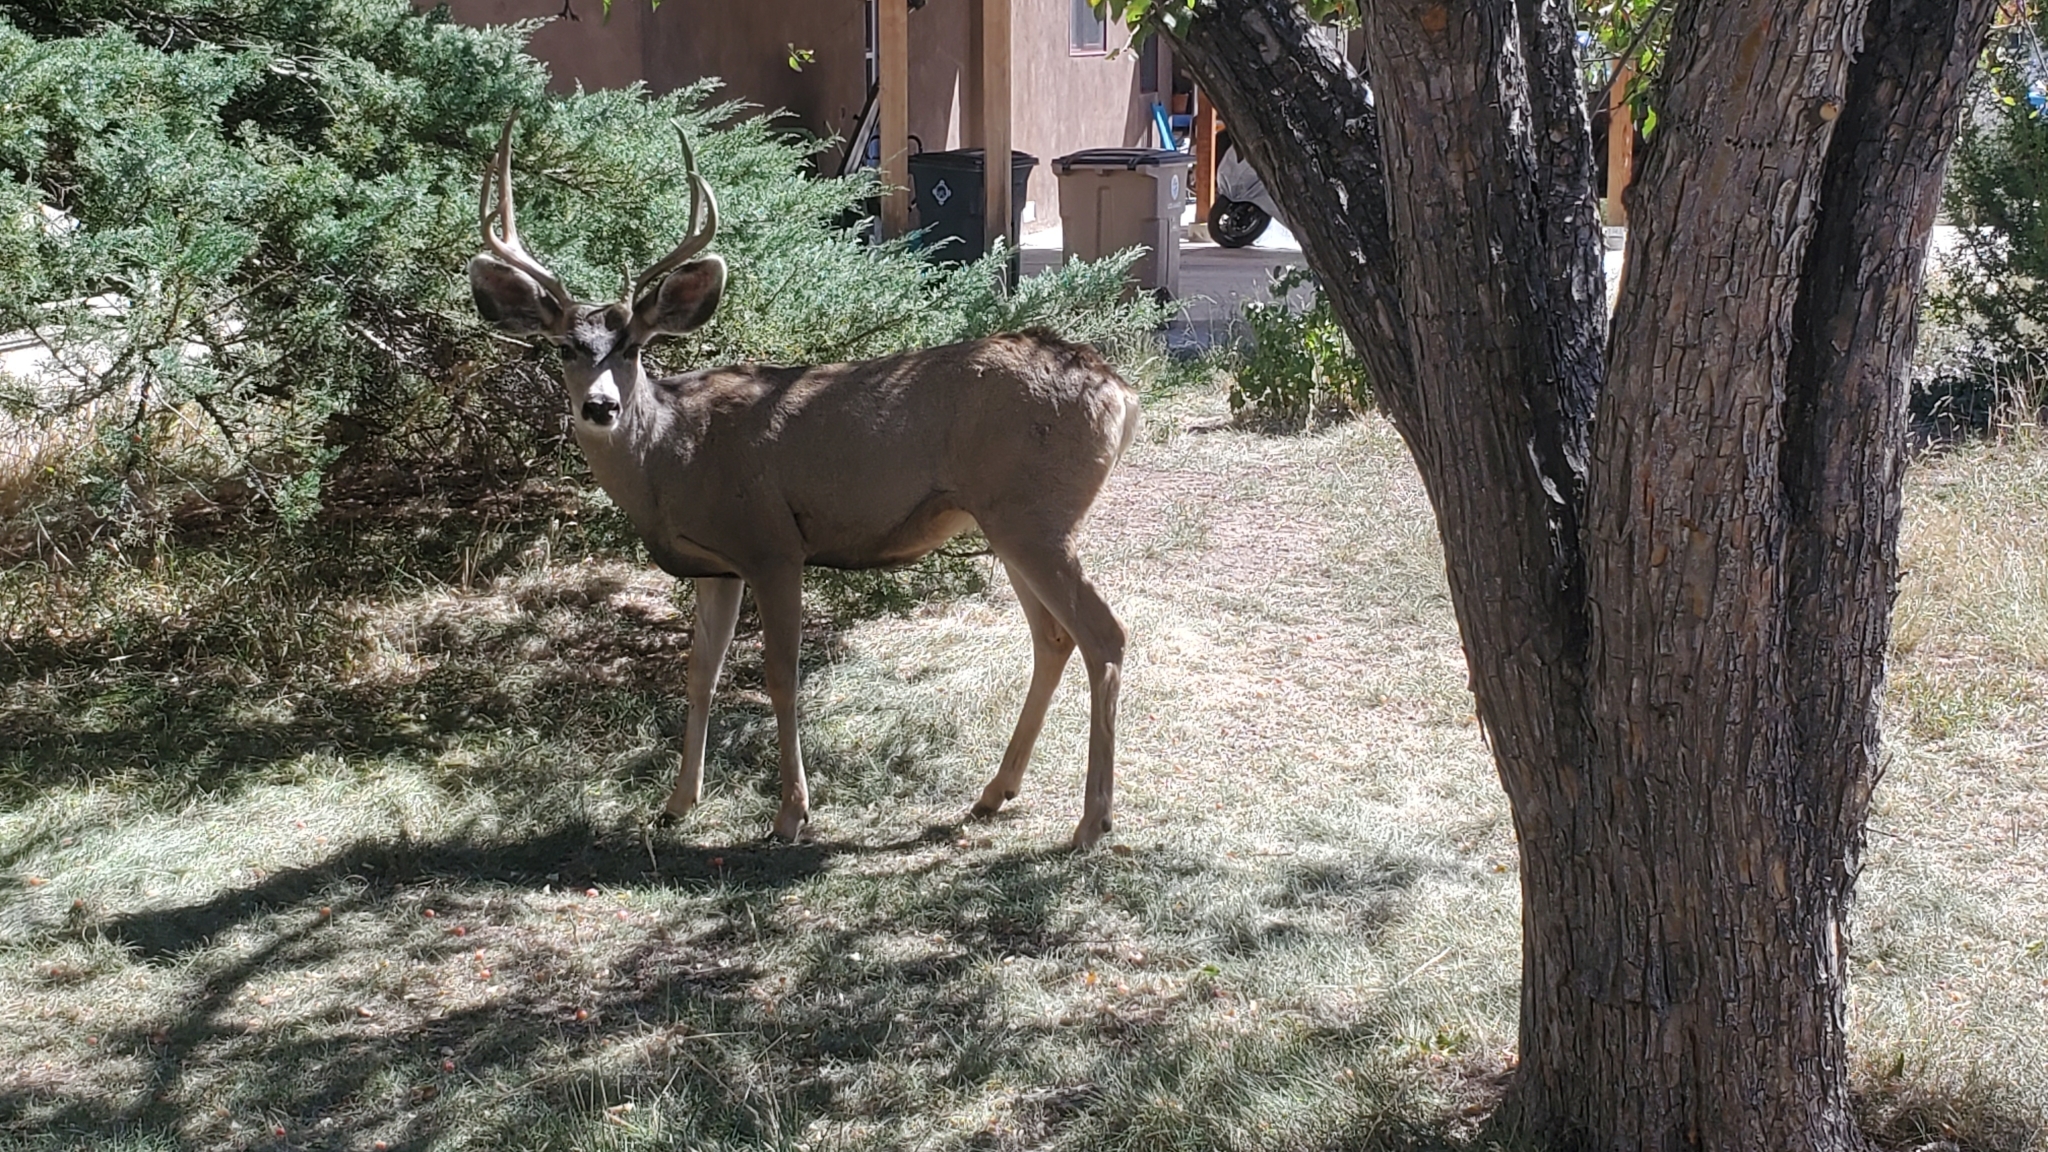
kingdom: Animalia
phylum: Chordata
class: Mammalia
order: Artiodactyla
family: Cervidae
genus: Odocoileus
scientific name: Odocoileus hemionus
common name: Mule deer
